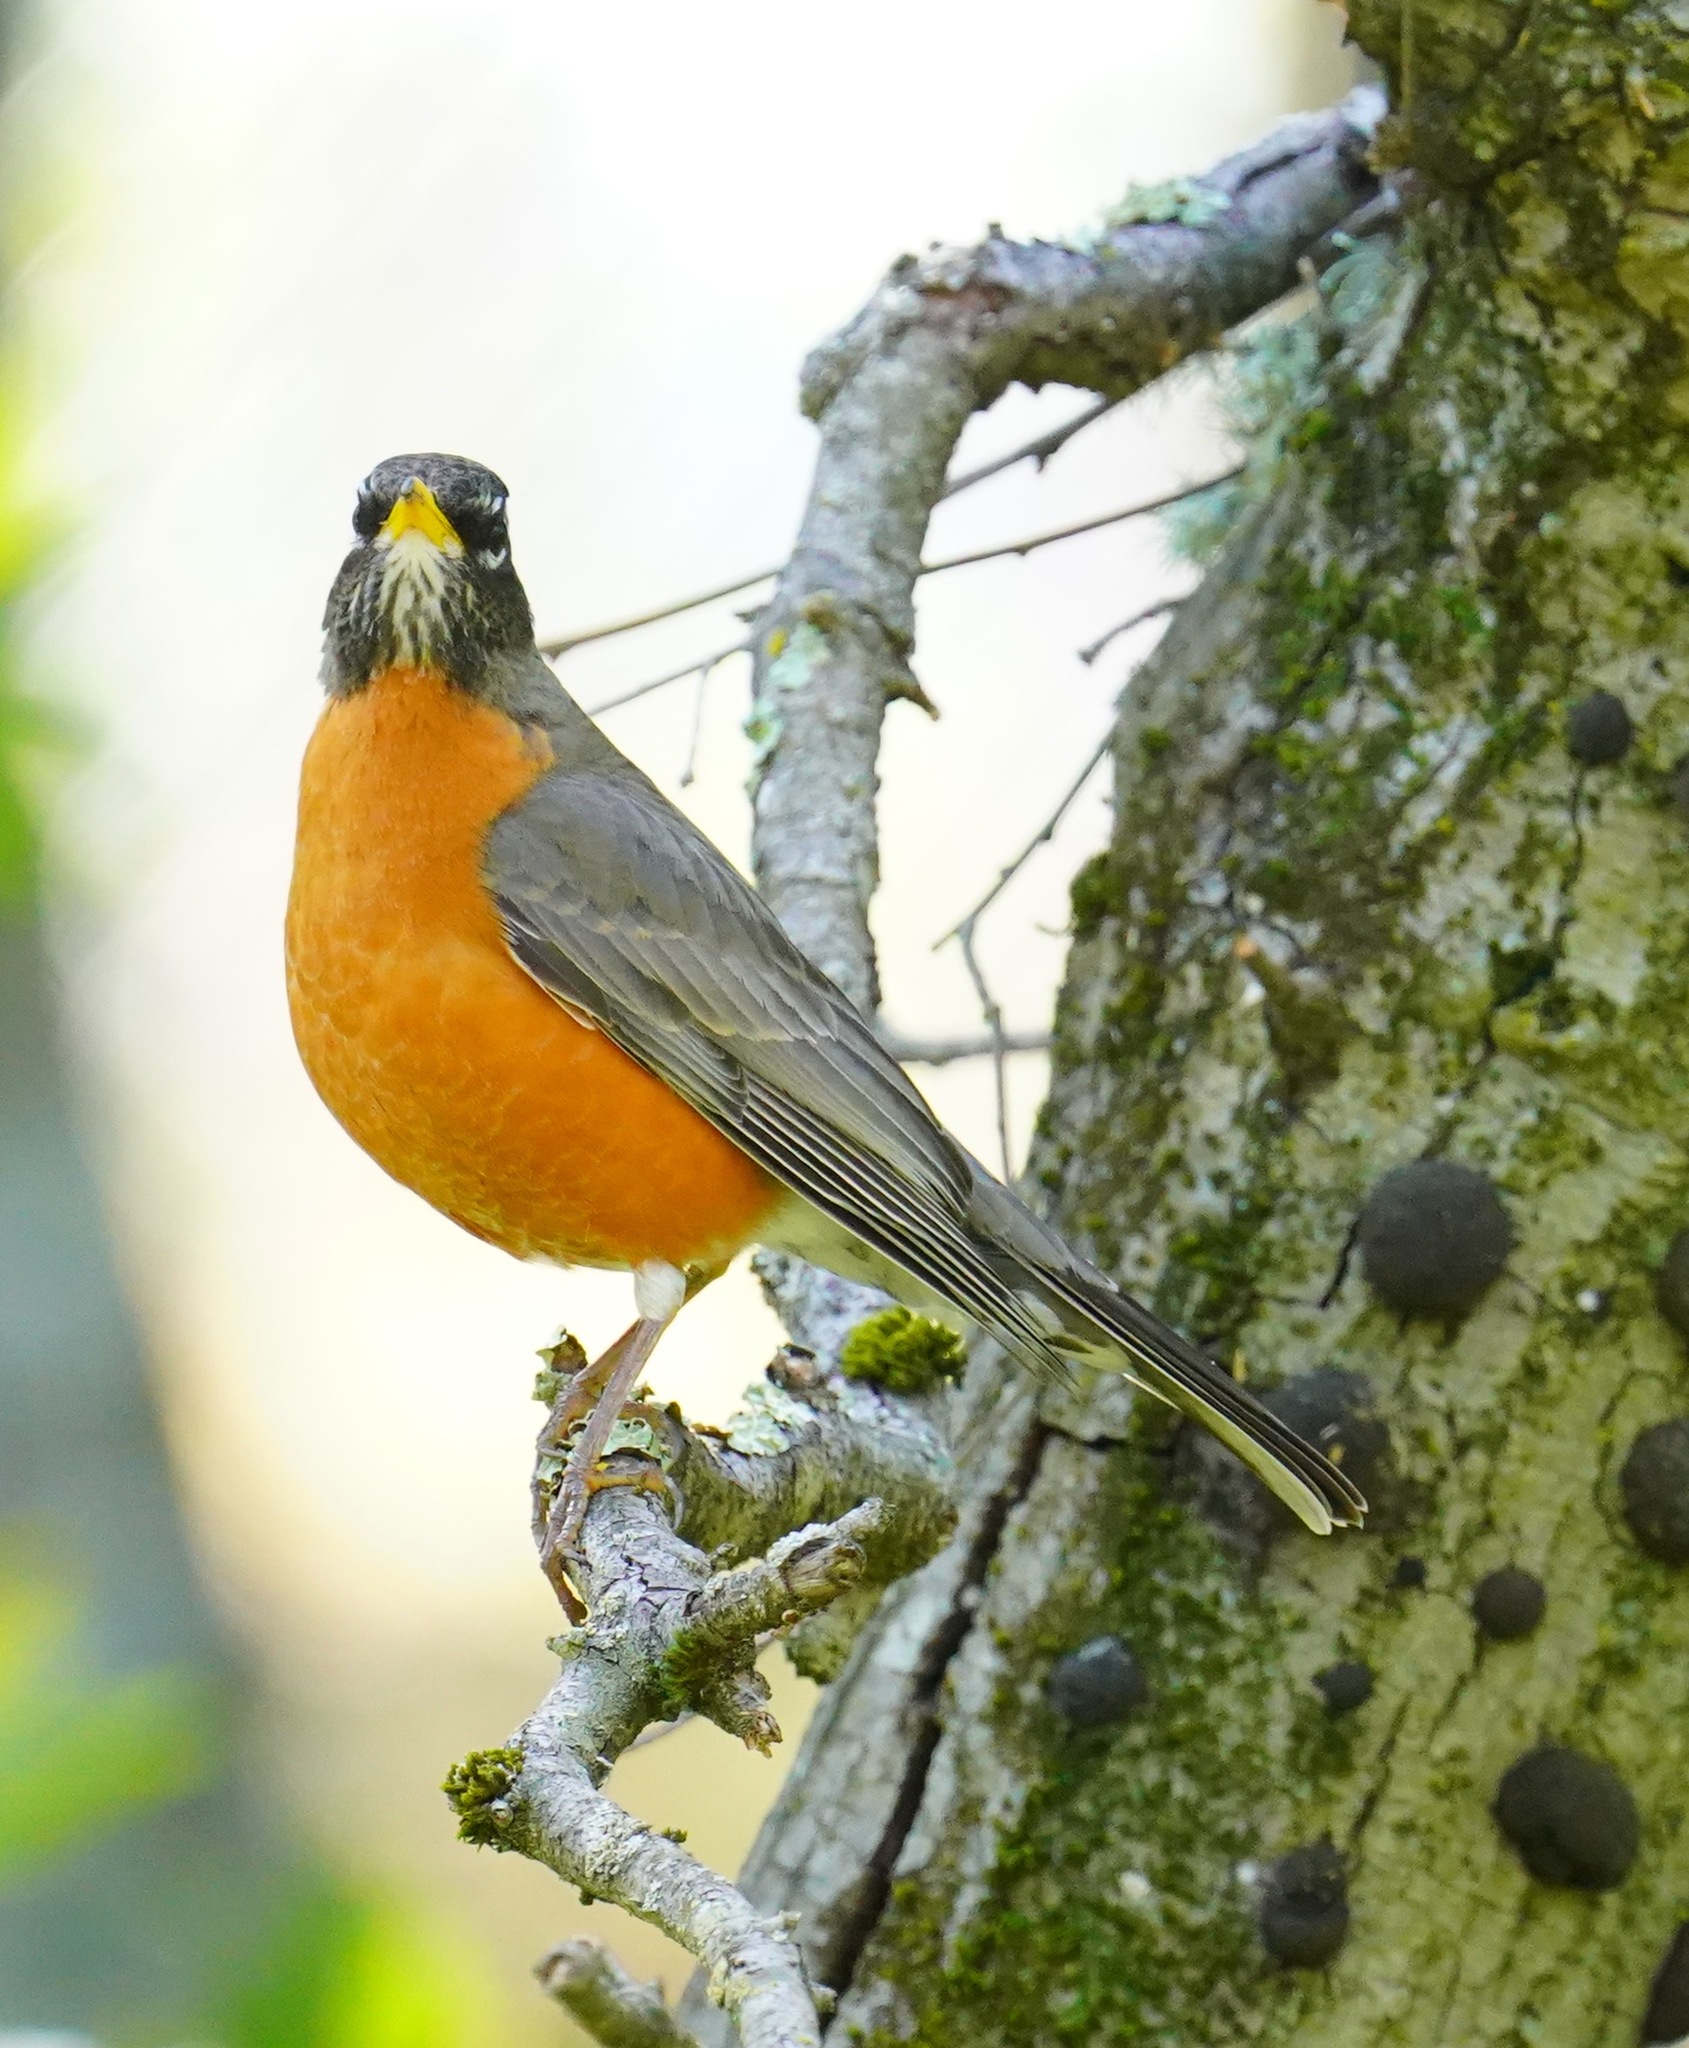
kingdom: Animalia
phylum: Chordata
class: Aves
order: Passeriformes
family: Turdidae
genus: Turdus
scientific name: Turdus migratorius
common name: American robin
